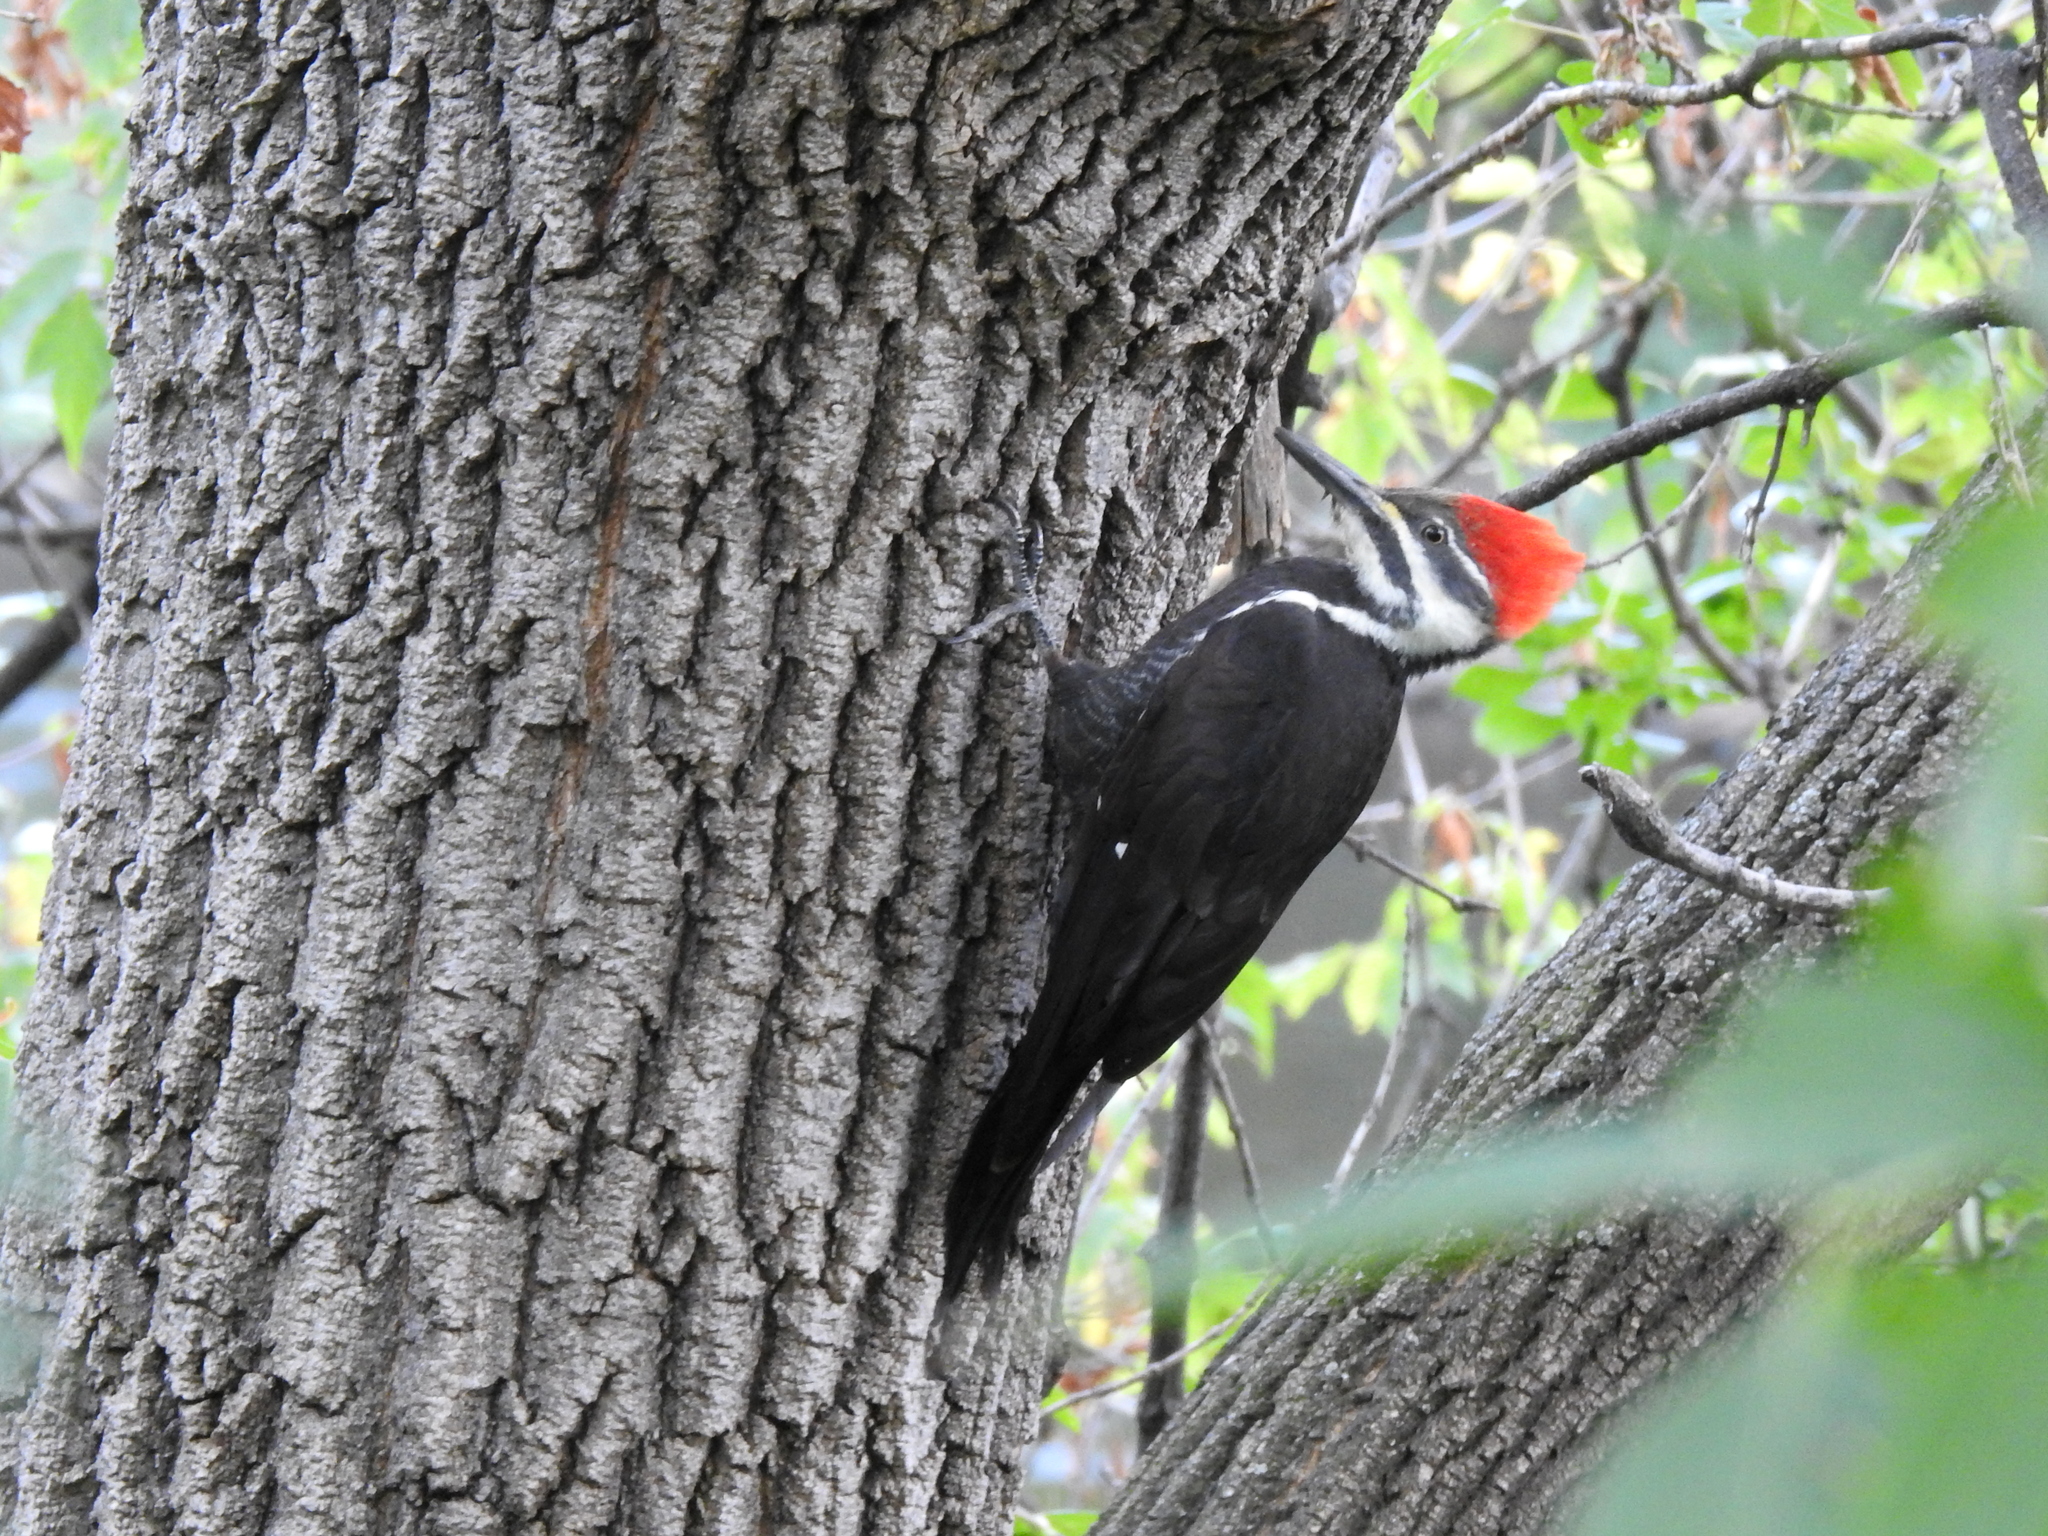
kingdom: Animalia
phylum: Chordata
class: Aves
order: Piciformes
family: Picidae
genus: Dryocopus
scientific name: Dryocopus pileatus
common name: Pileated woodpecker
